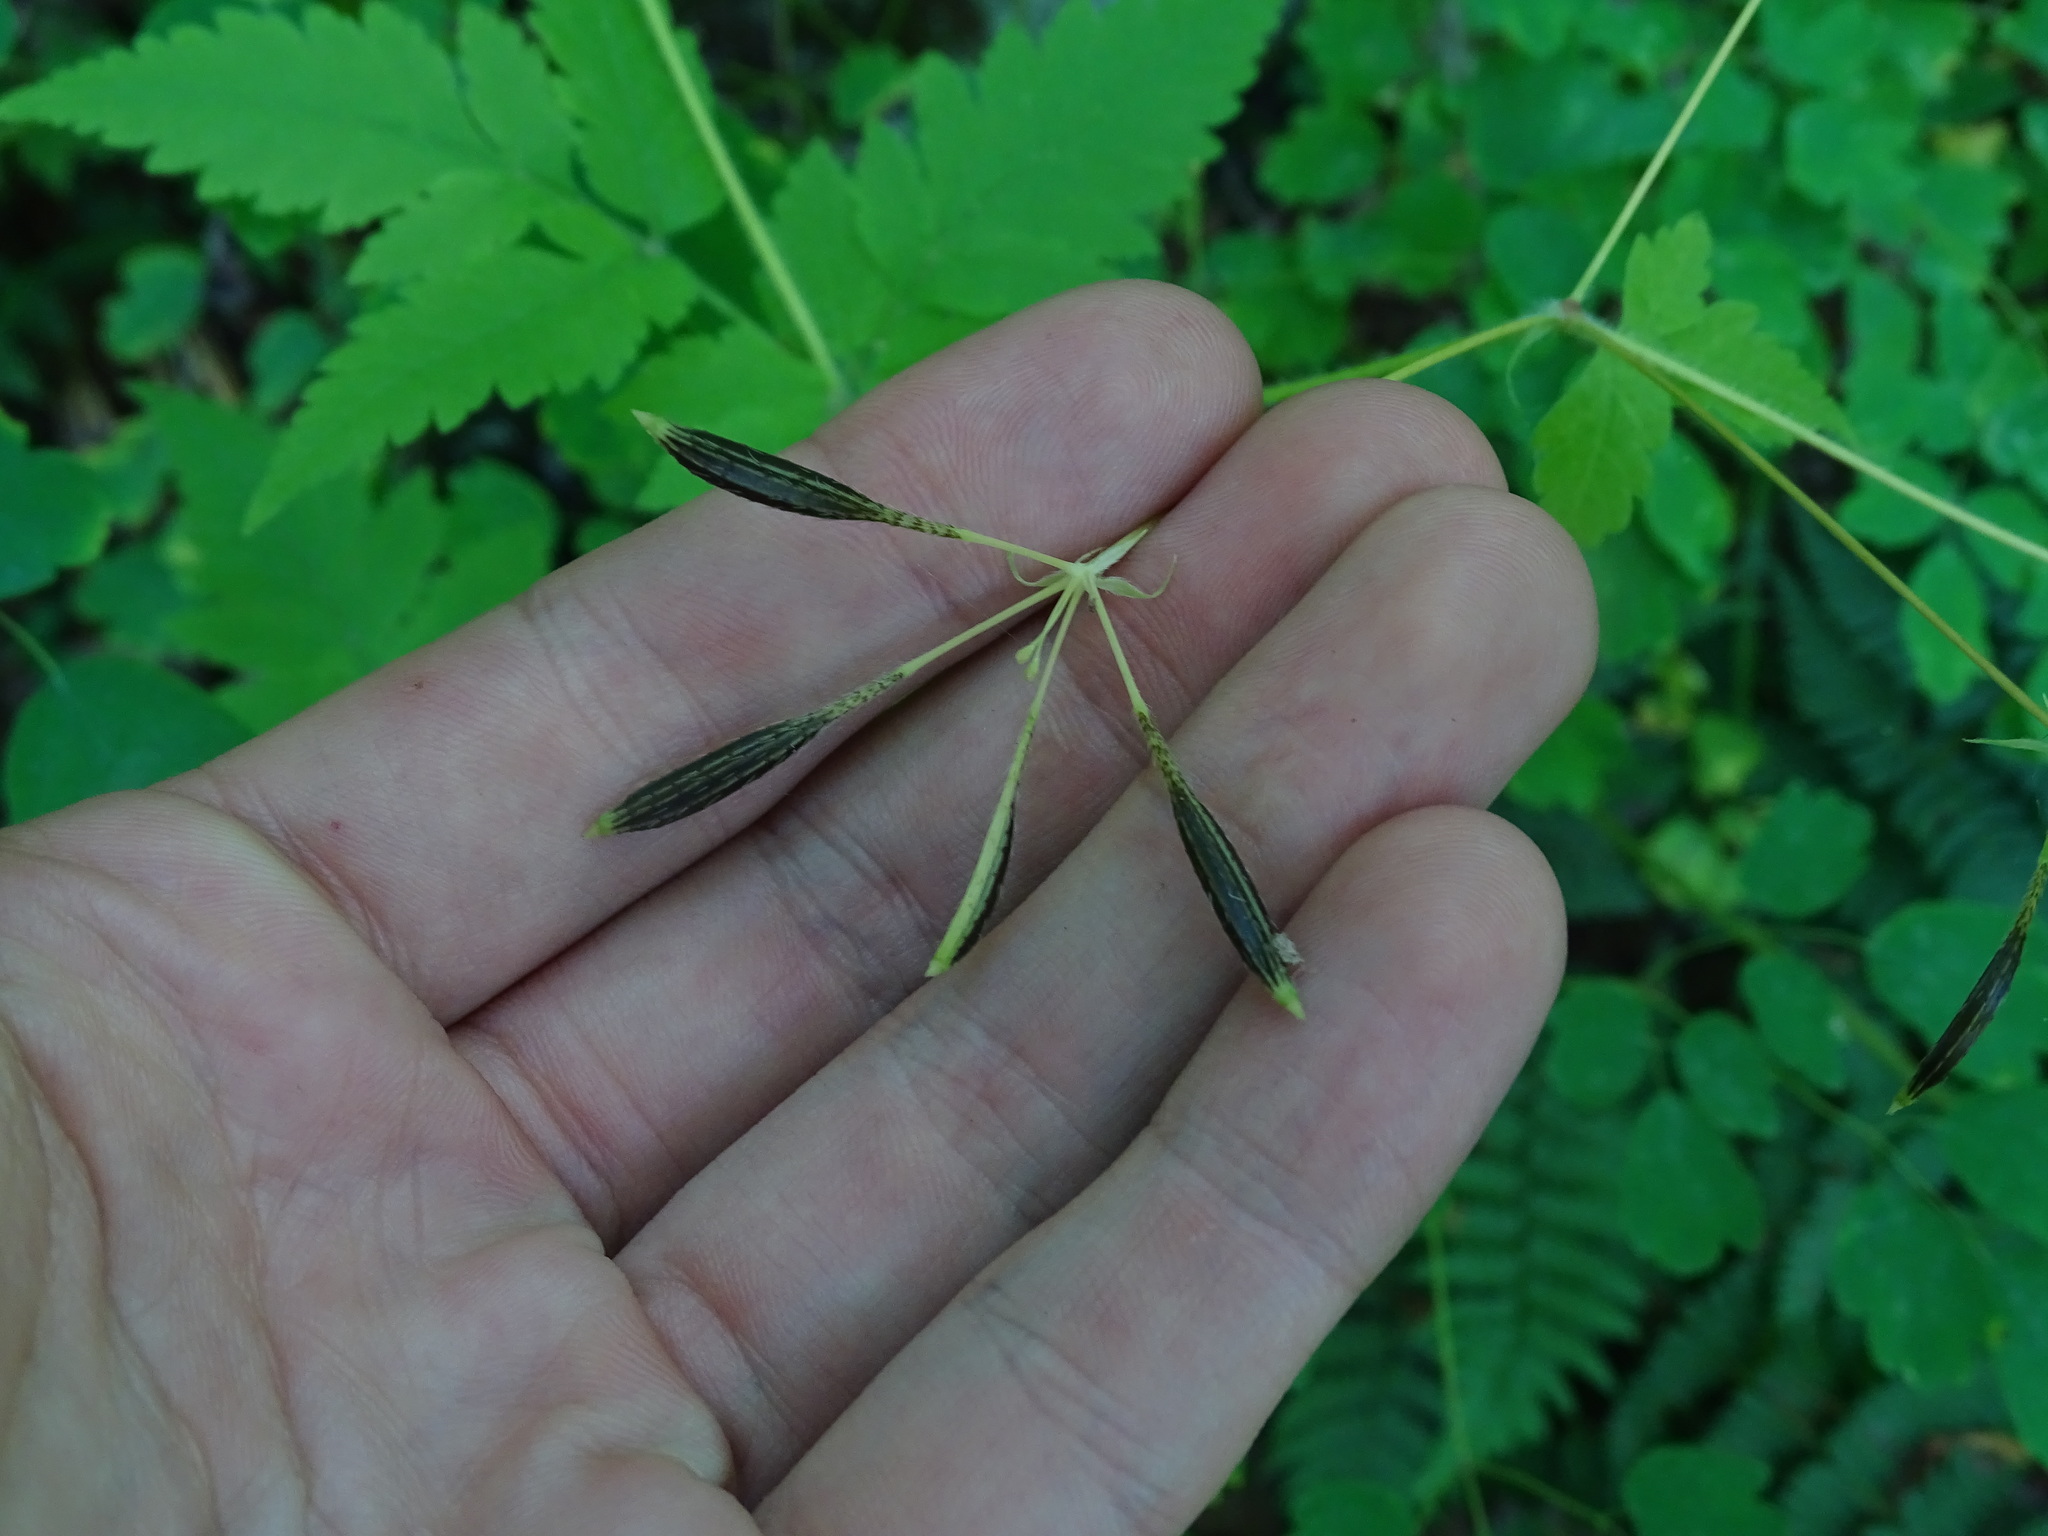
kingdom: Plantae
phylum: Tracheophyta
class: Magnoliopsida
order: Apiales
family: Apiaceae
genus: Osmorhiza
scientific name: Osmorhiza claytonii
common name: Hairy sweet cicely
